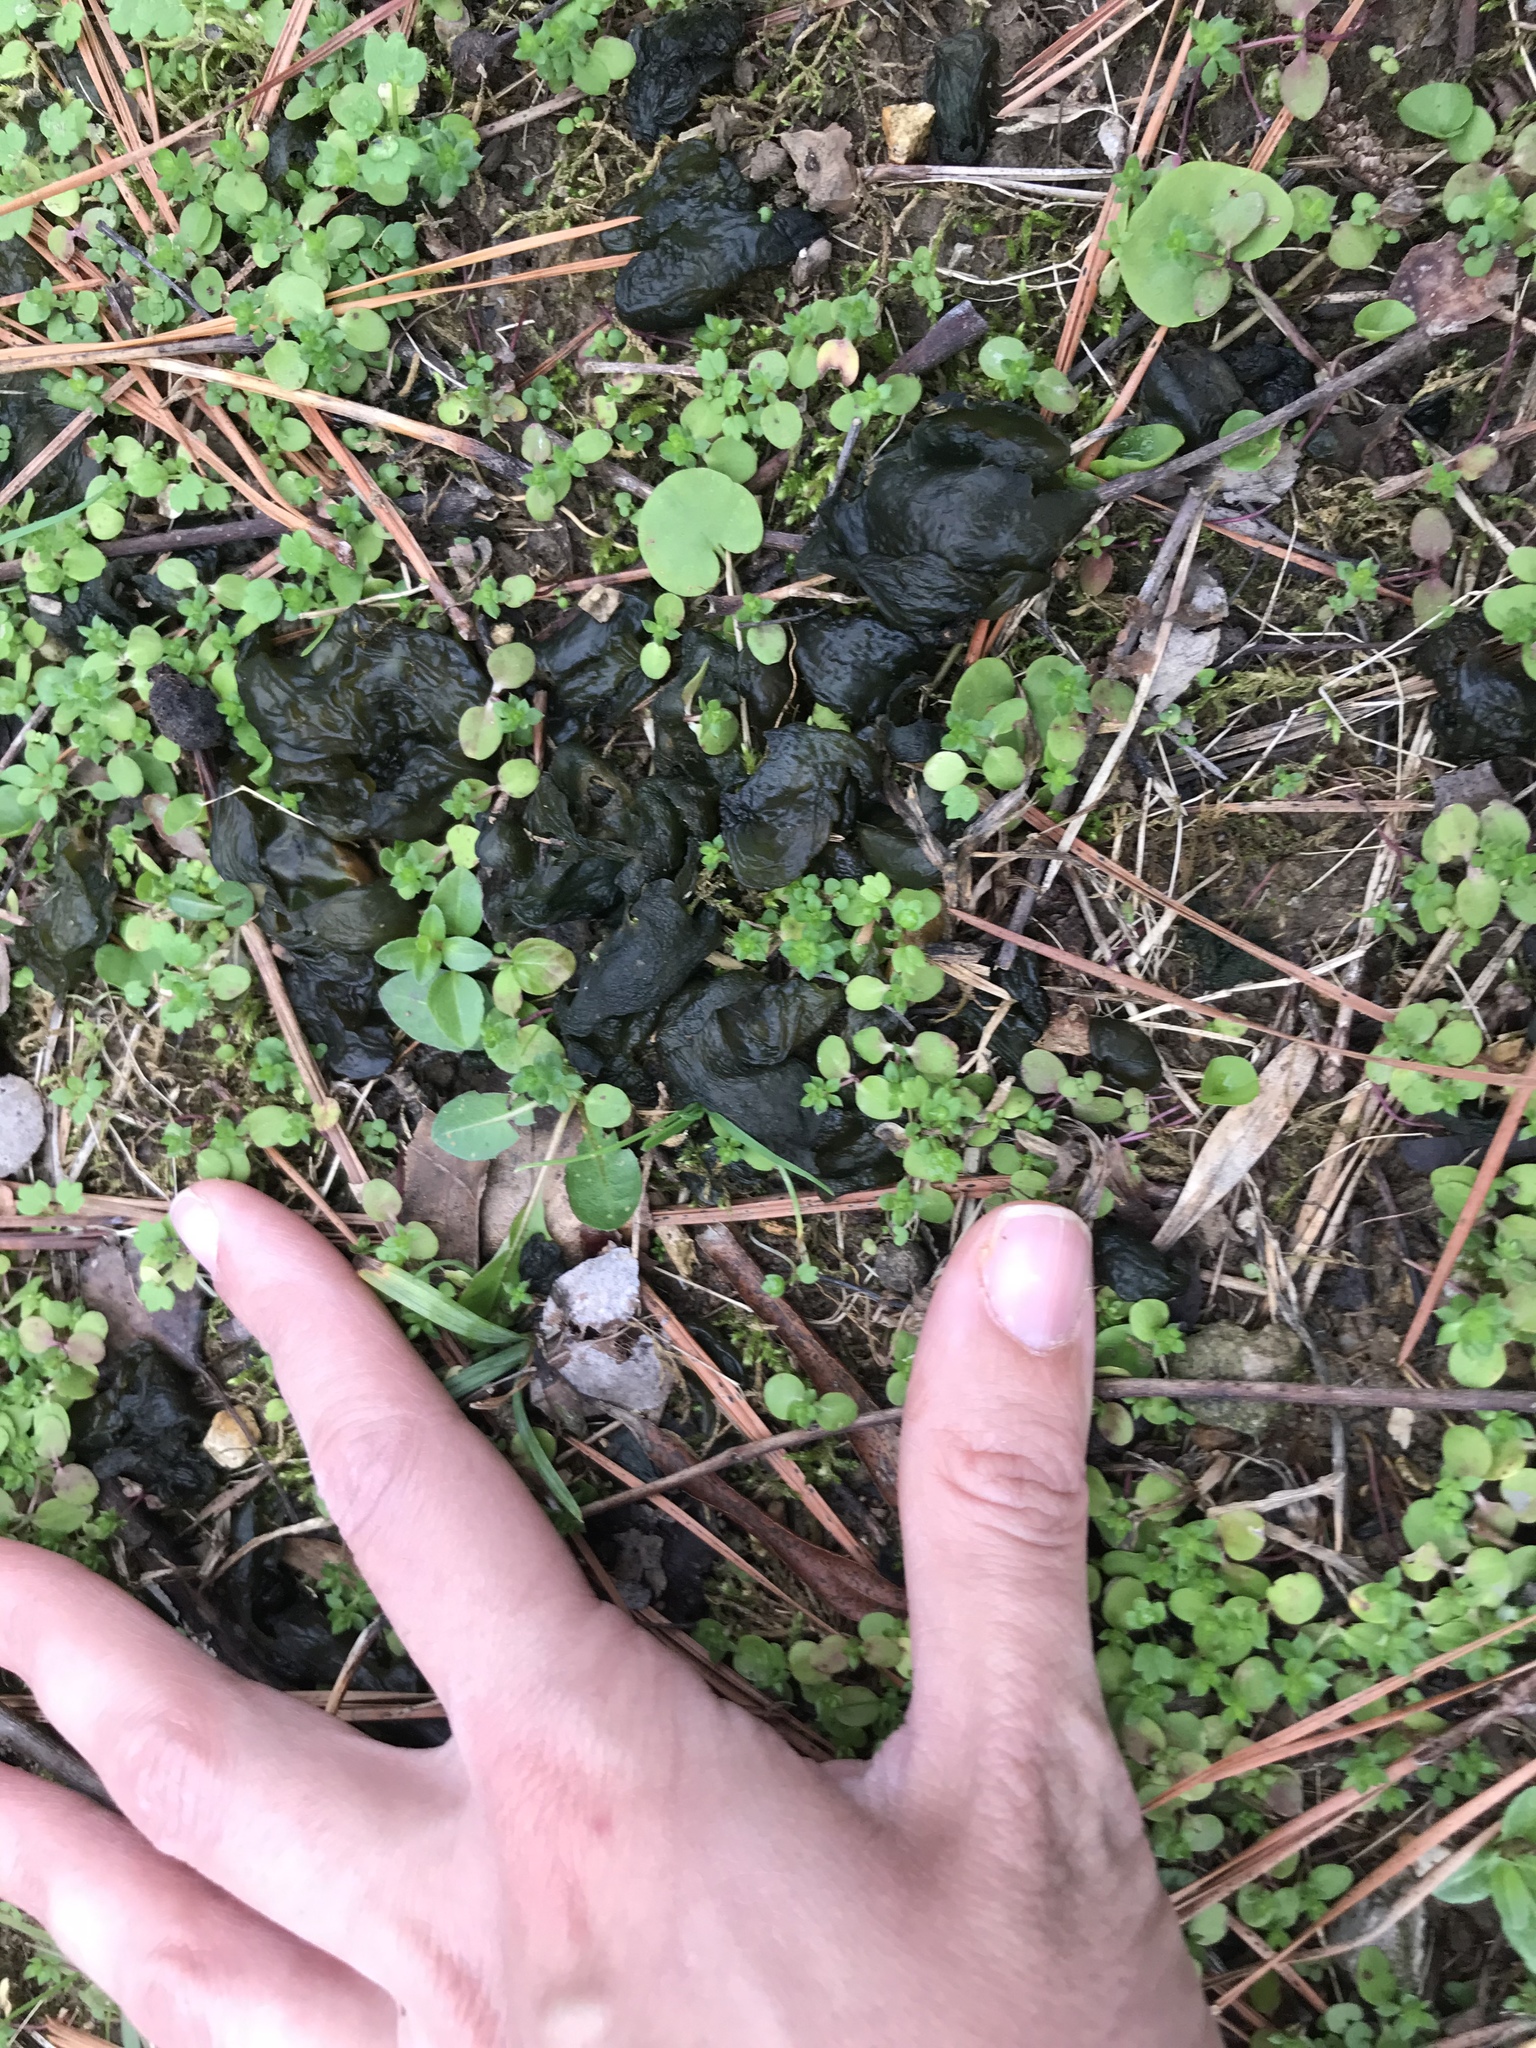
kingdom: Bacteria
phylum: Cyanobacteria
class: Cyanobacteriia
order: Cyanobacteriales
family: Nostocaceae
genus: Nostoc
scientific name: Nostoc commune
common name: Star jelly
